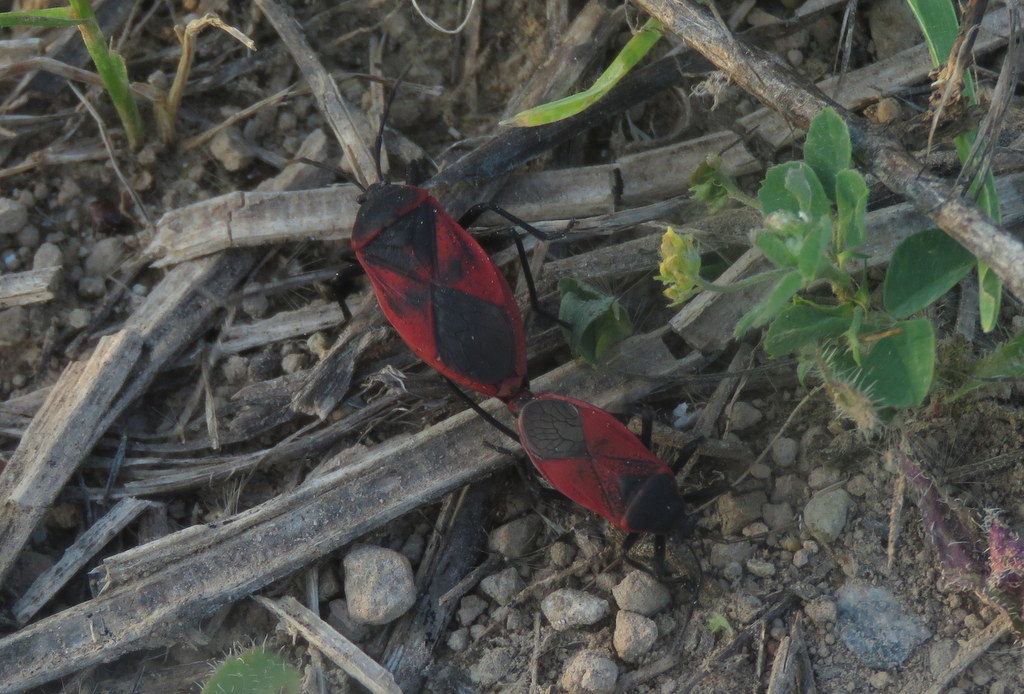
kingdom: Animalia
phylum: Arthropoda
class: Insecta
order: Hemiptera
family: Largidae
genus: Largus
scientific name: Largus rufipennis
